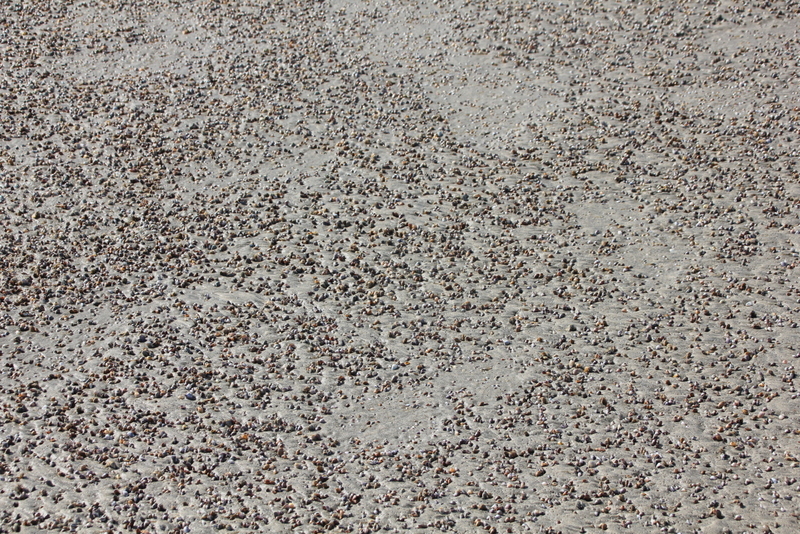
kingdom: Animalia
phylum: Mollusca
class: Bivalvia
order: Cardiida
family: Donacidae
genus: Donax
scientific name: Donax gouldii
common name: Gould beanclam
